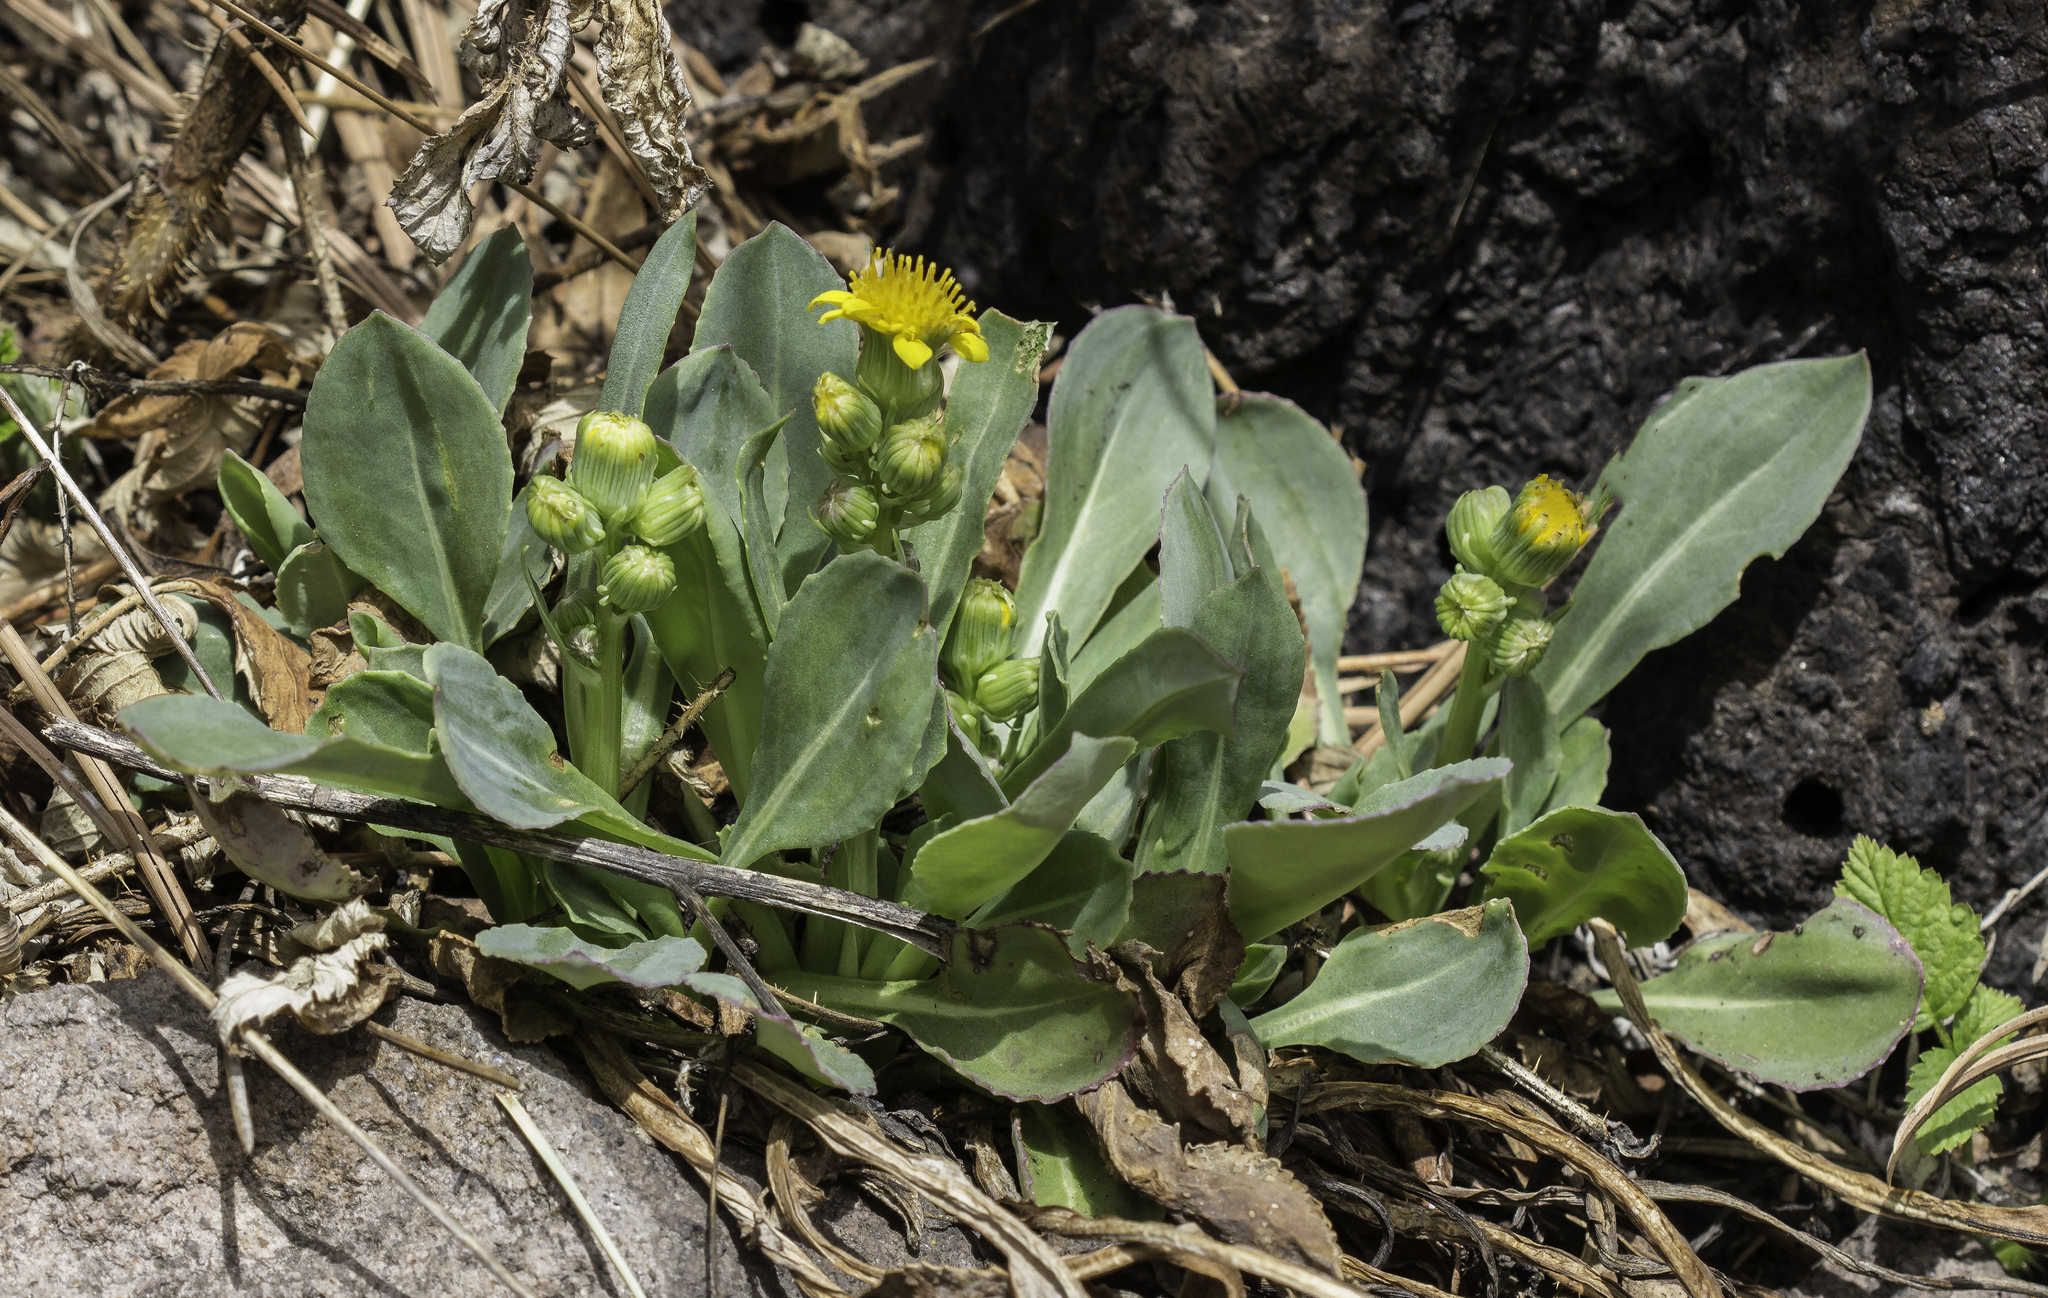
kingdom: Plantae
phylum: Tracheophyta
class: Magnoliopsida
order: Asterales
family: Asteraceae
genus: Senecio
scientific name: Senecio wootonii
